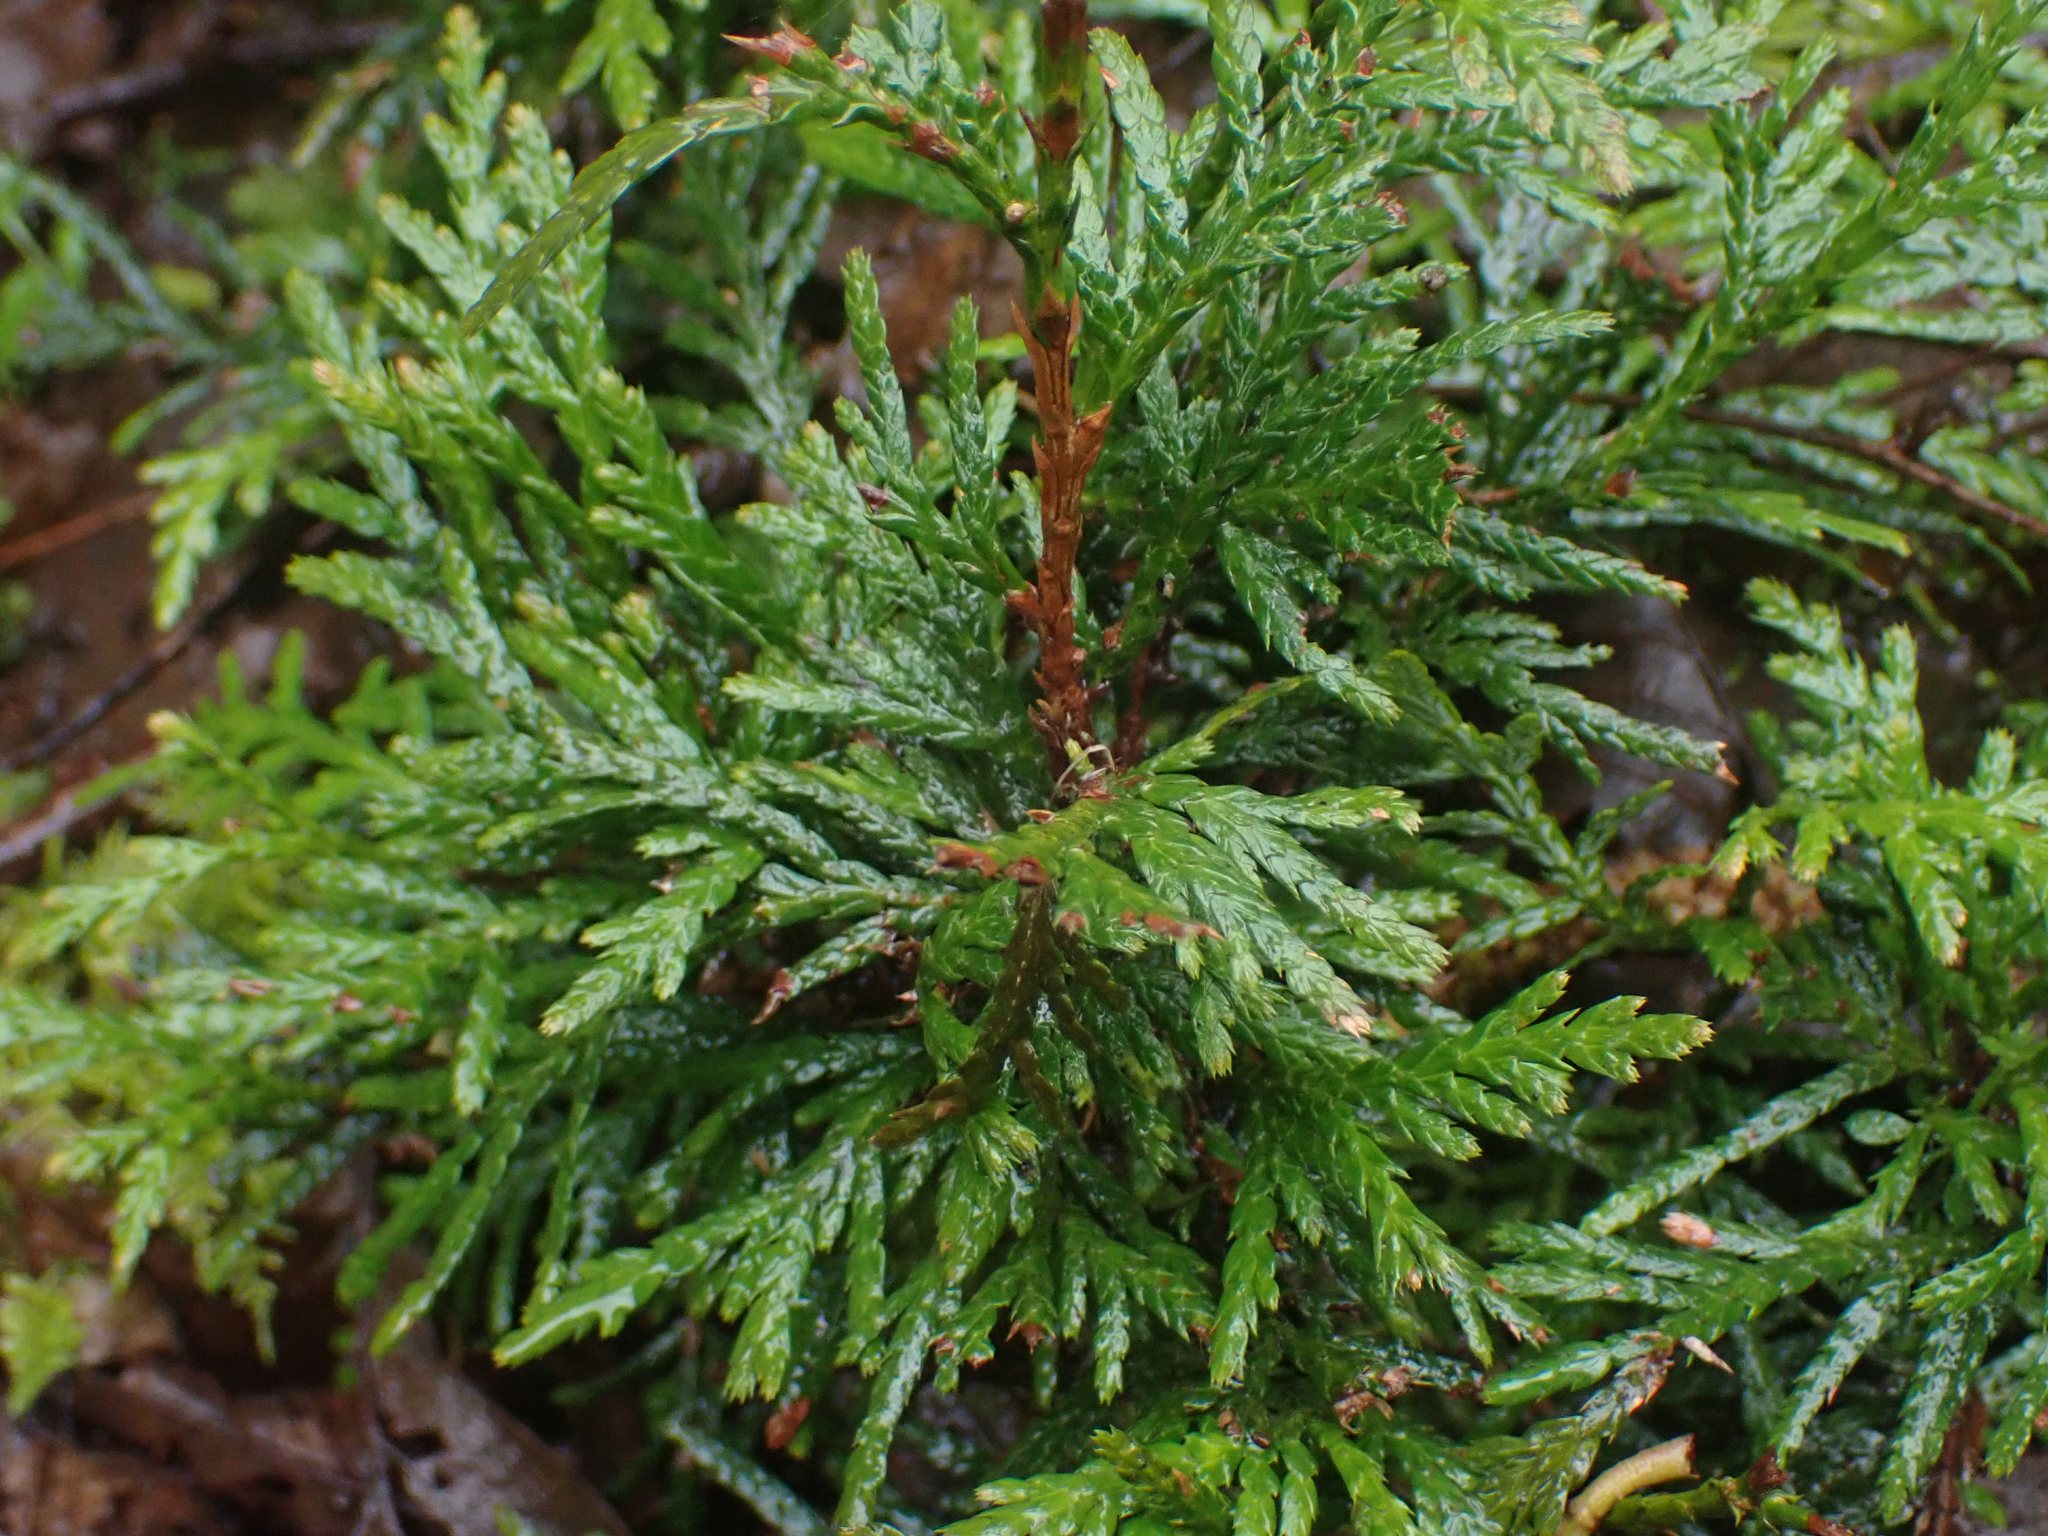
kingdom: Plantae
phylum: Tracheophyta
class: Pinopsida
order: Pinales
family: Cupressaceae
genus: Thuja
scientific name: Thuja plicata
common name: Western red-cedar
